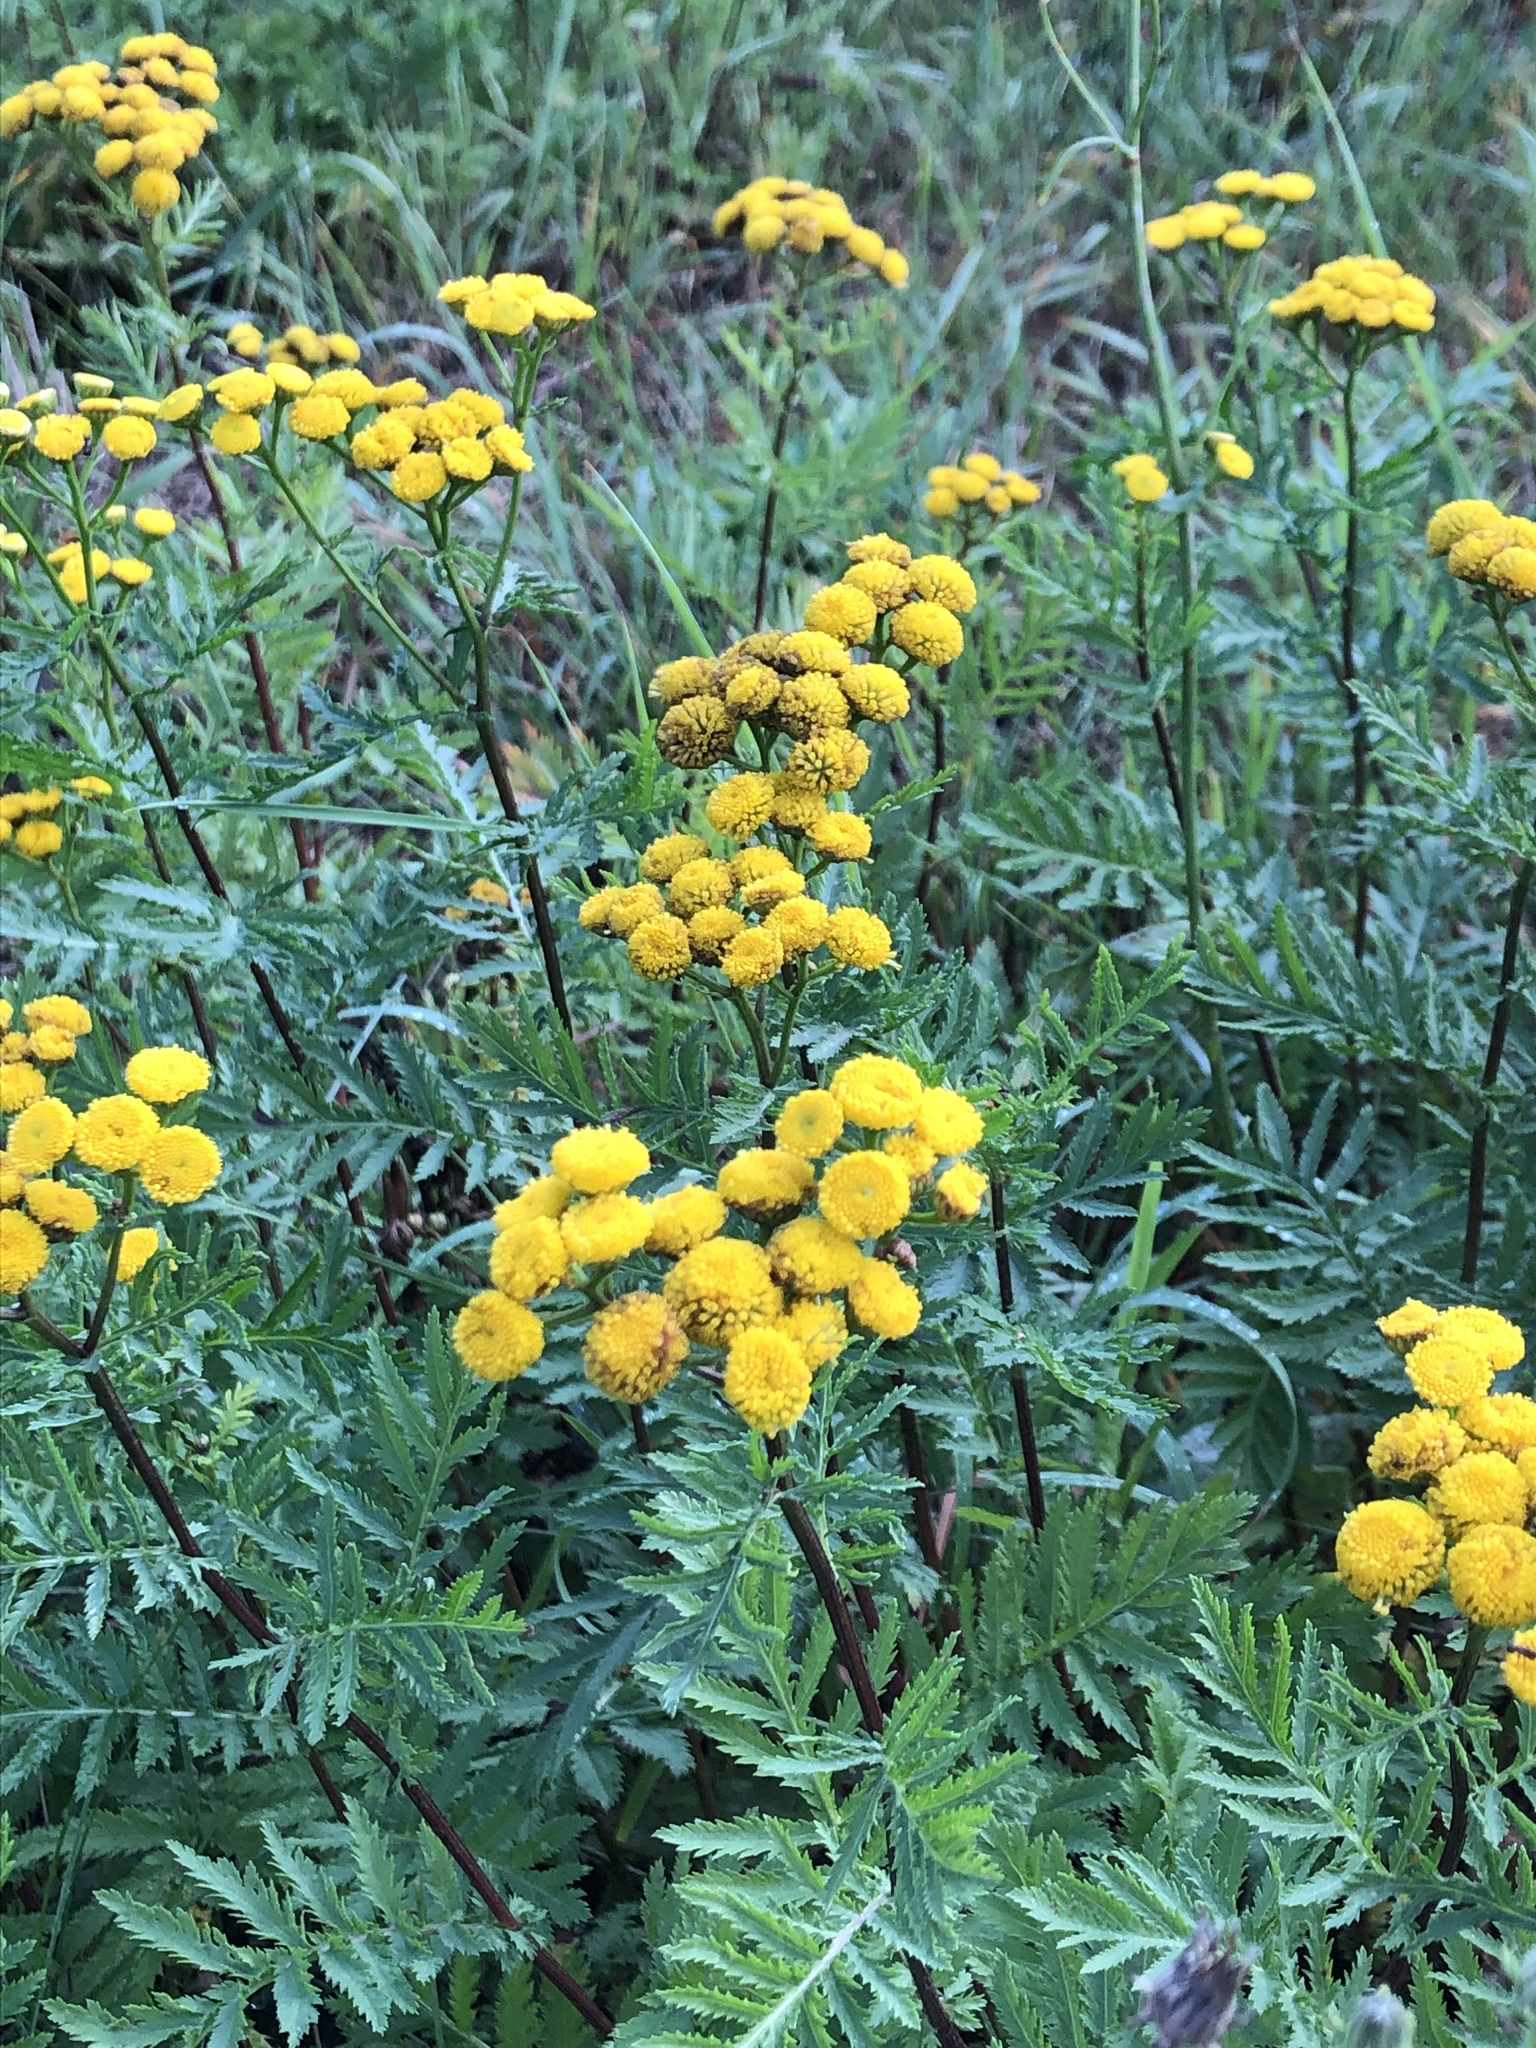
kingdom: Plantae
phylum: Tracheophyta
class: Magnoliopsida
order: Asterales
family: Asteraceae
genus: Tanacetum
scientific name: Tanacetum vulgare
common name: Common tansy
